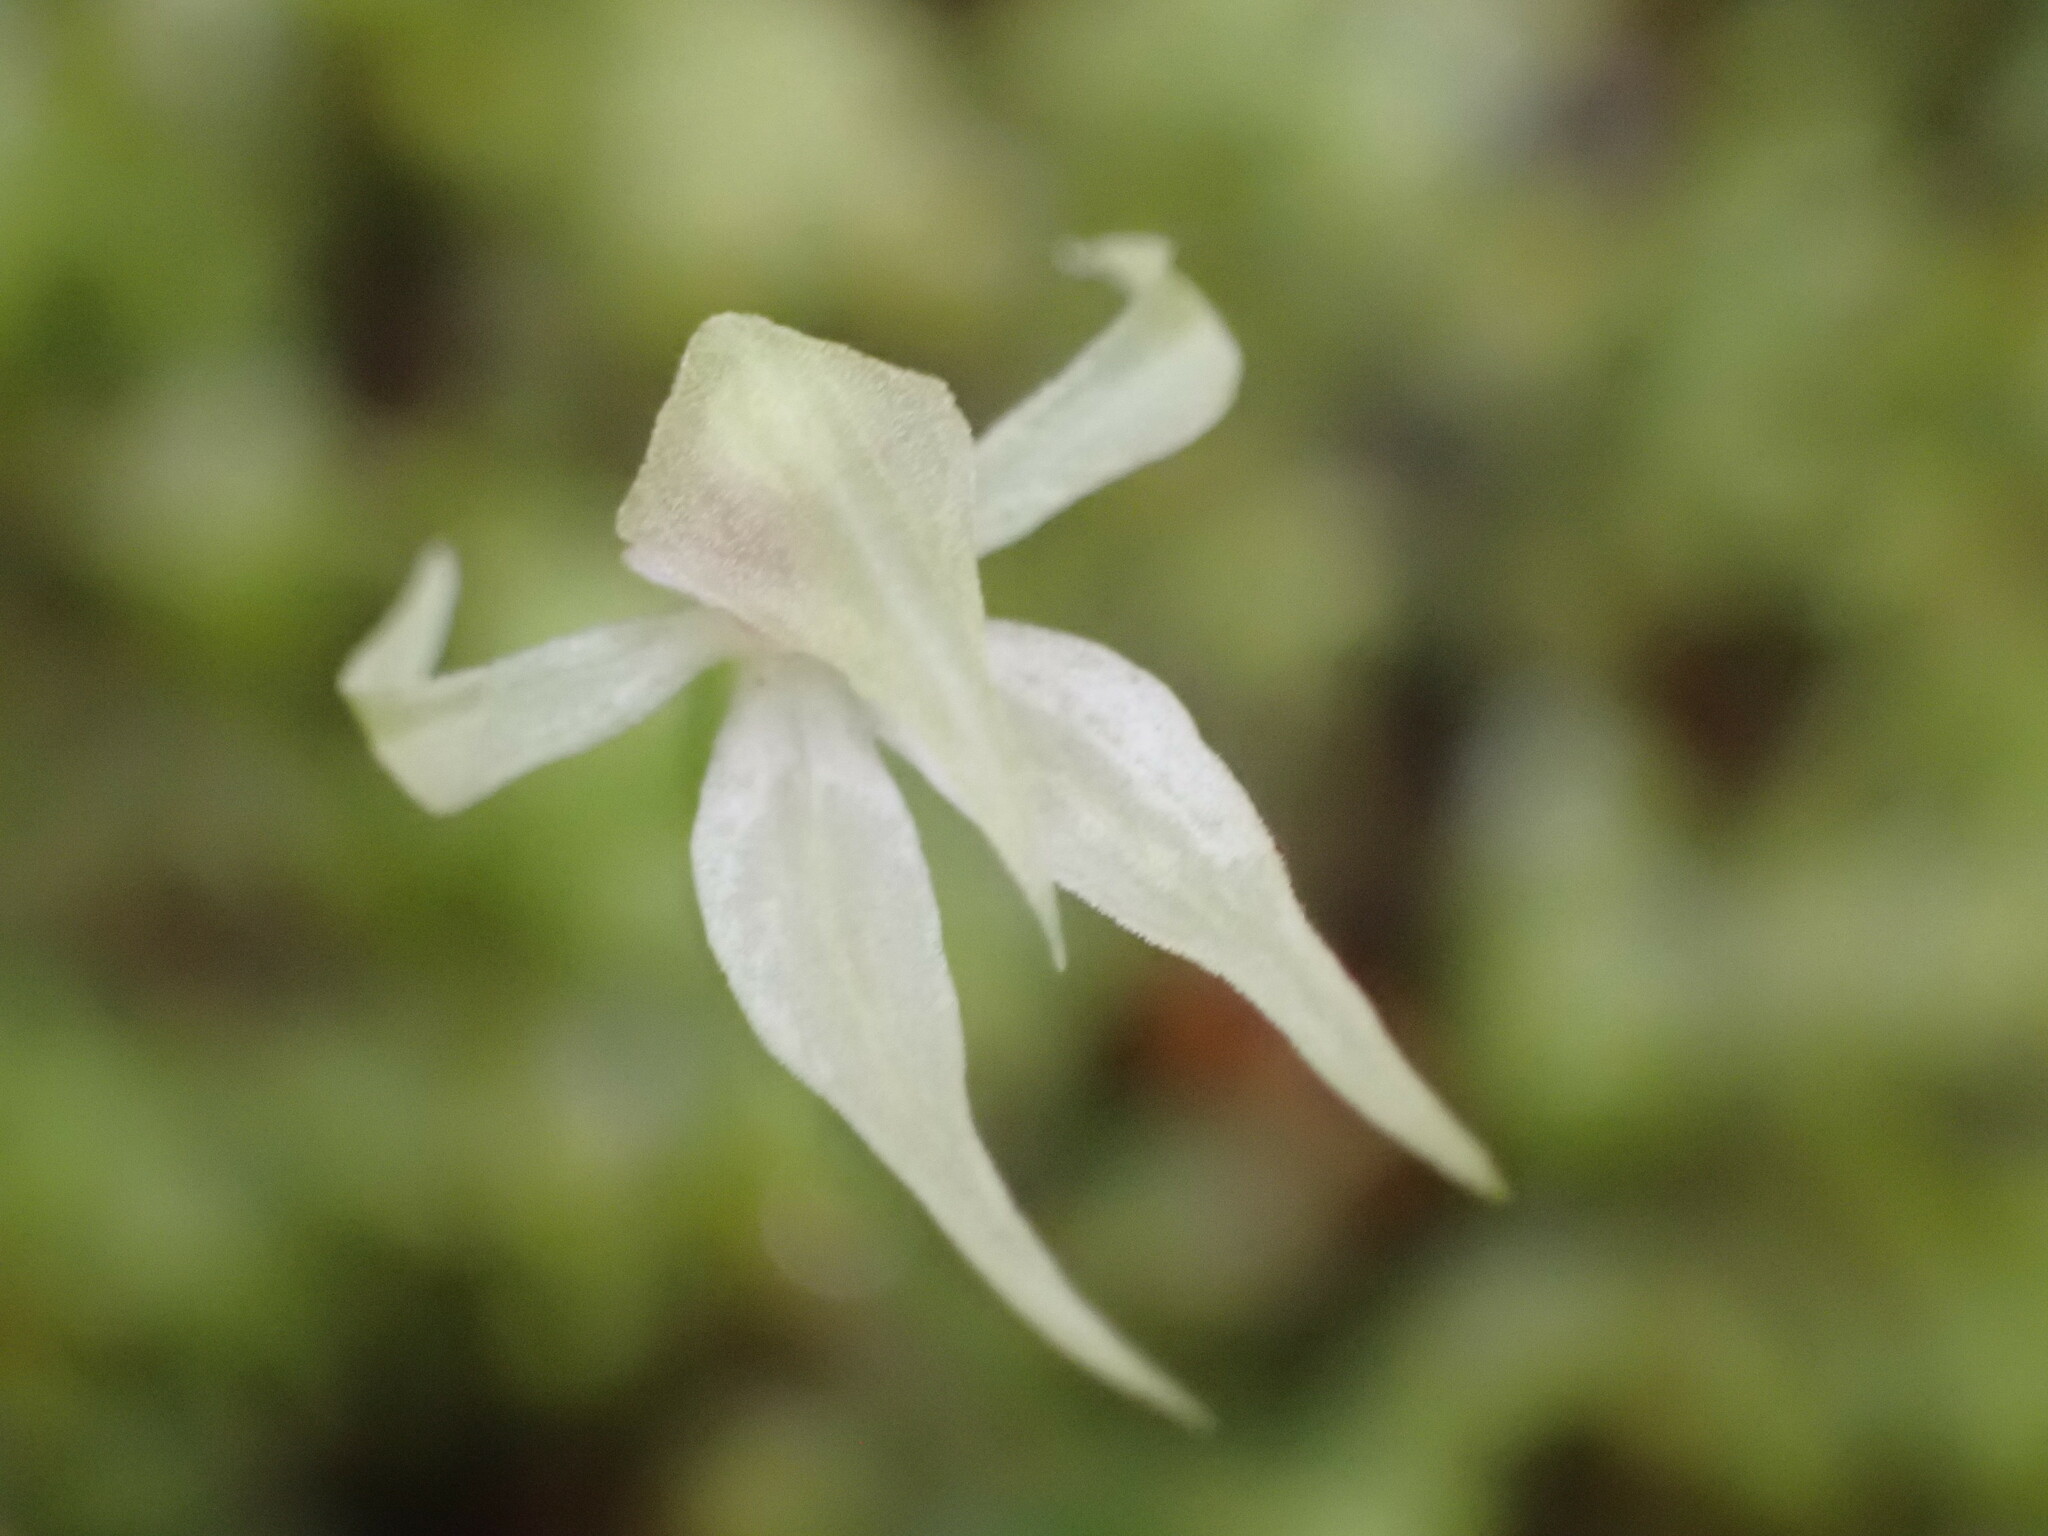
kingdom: Plantae
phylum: Tracheophyta
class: Liliopsida
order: Asparagales
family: Orchidaceae
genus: Adenochilus
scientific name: Adenochilus gracilis
